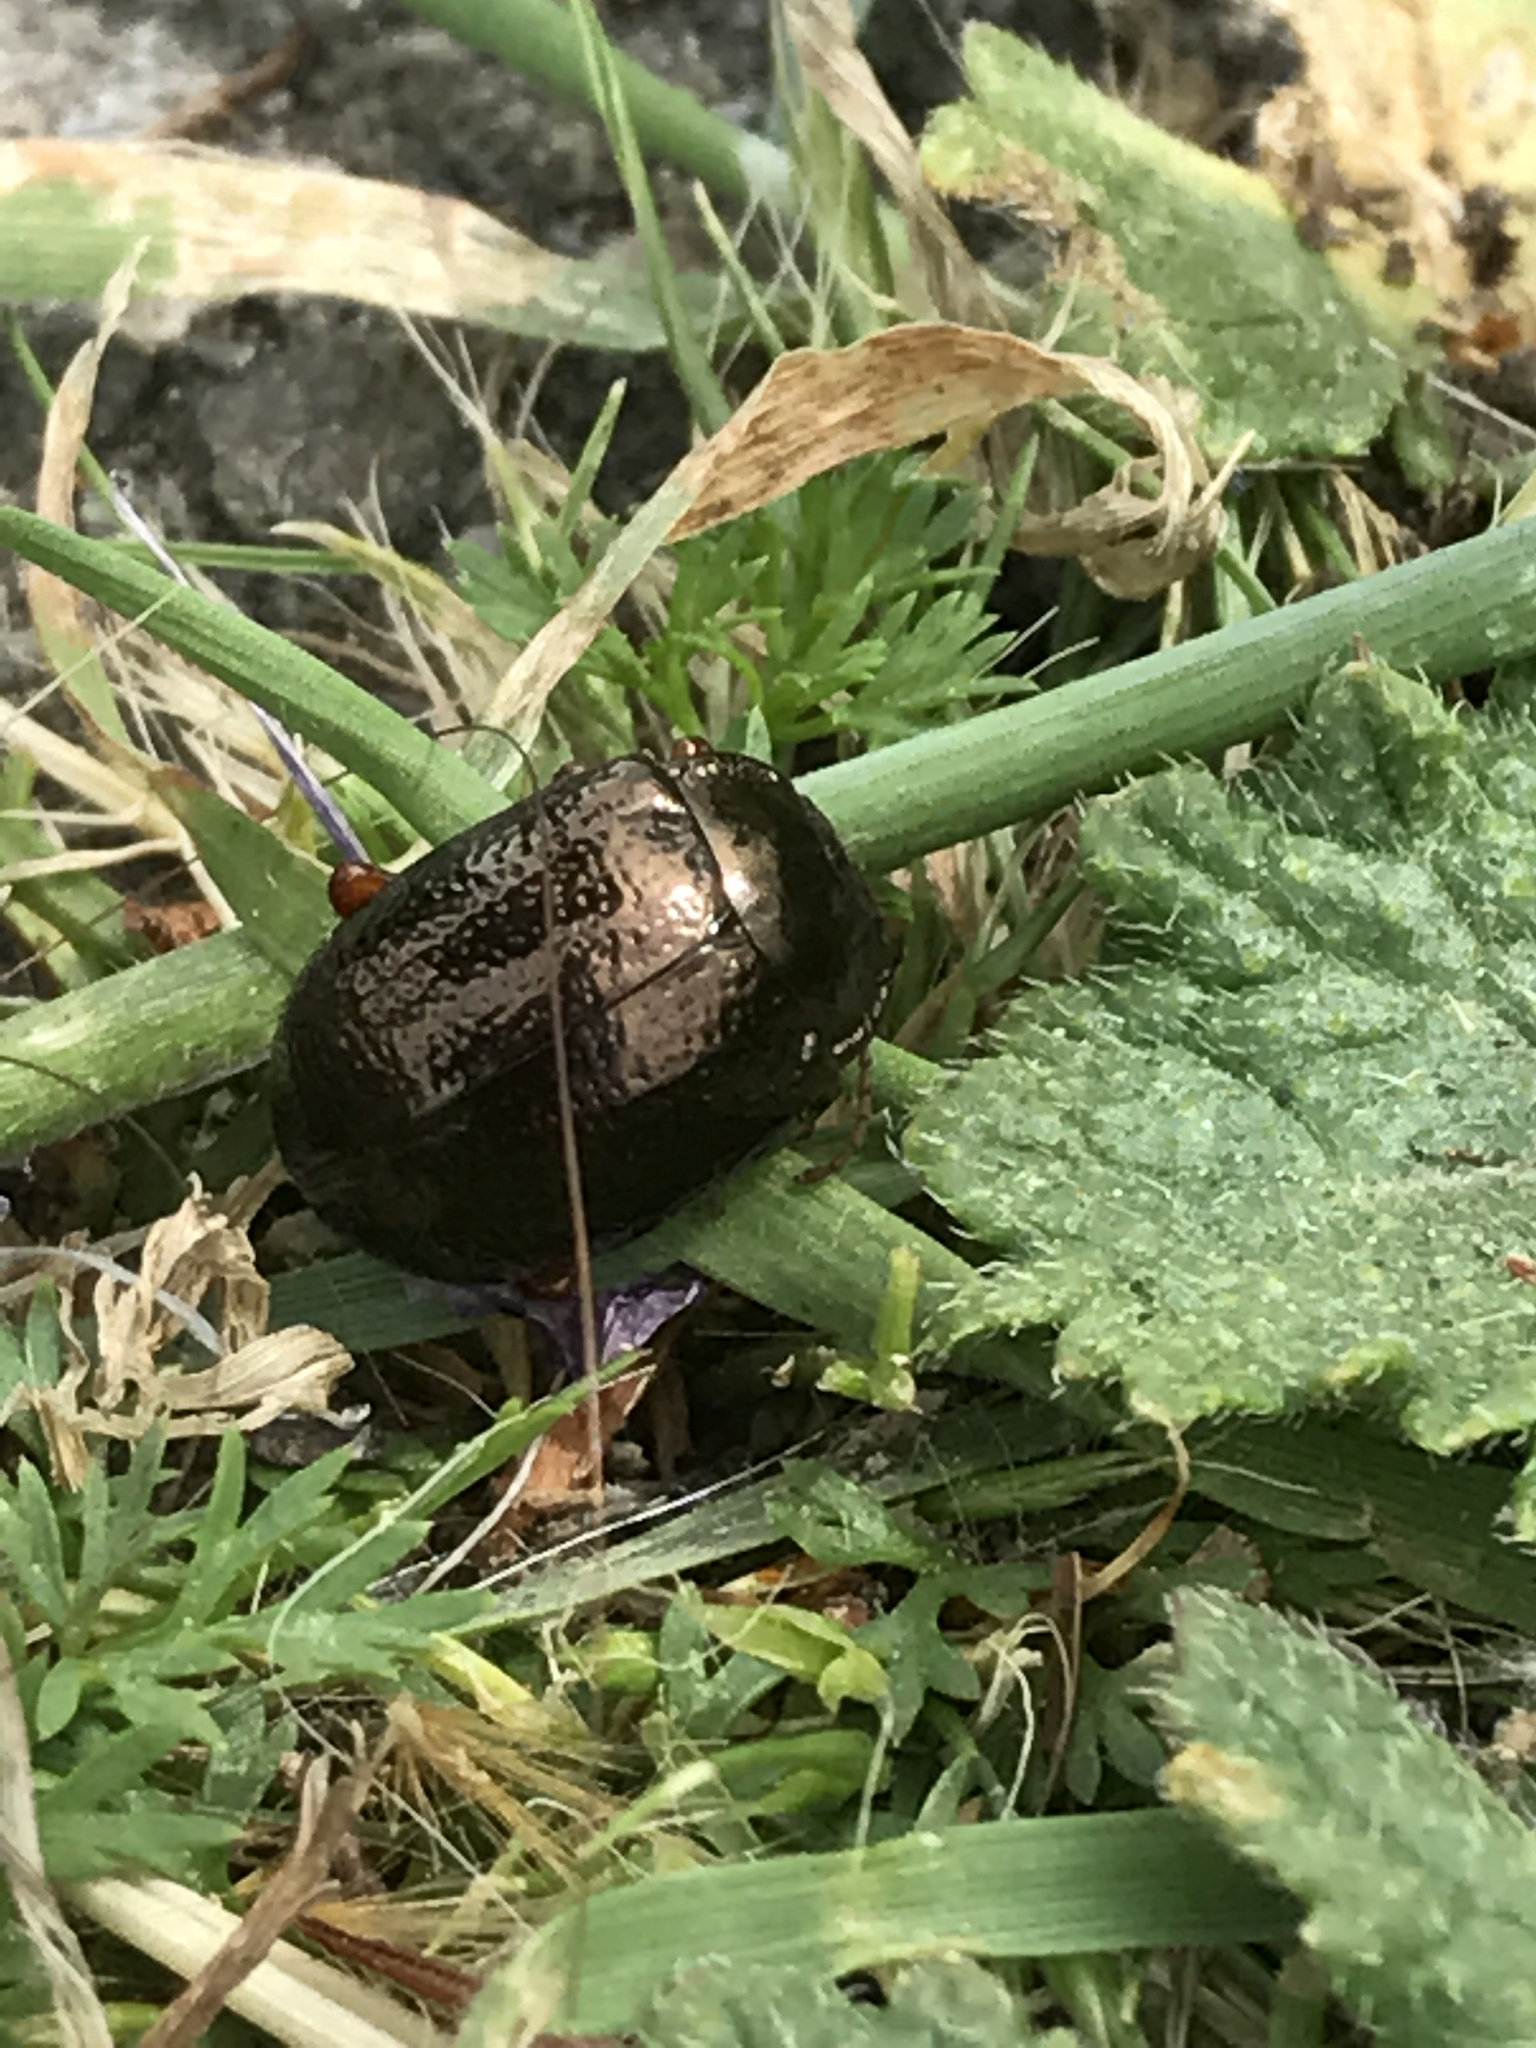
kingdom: Animalia
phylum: Arthropoda
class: Insecta
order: Coleoptera
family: Chrysomelidae
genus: Chrysolina
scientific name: Chrysolina bankii
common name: Leaf beetle
